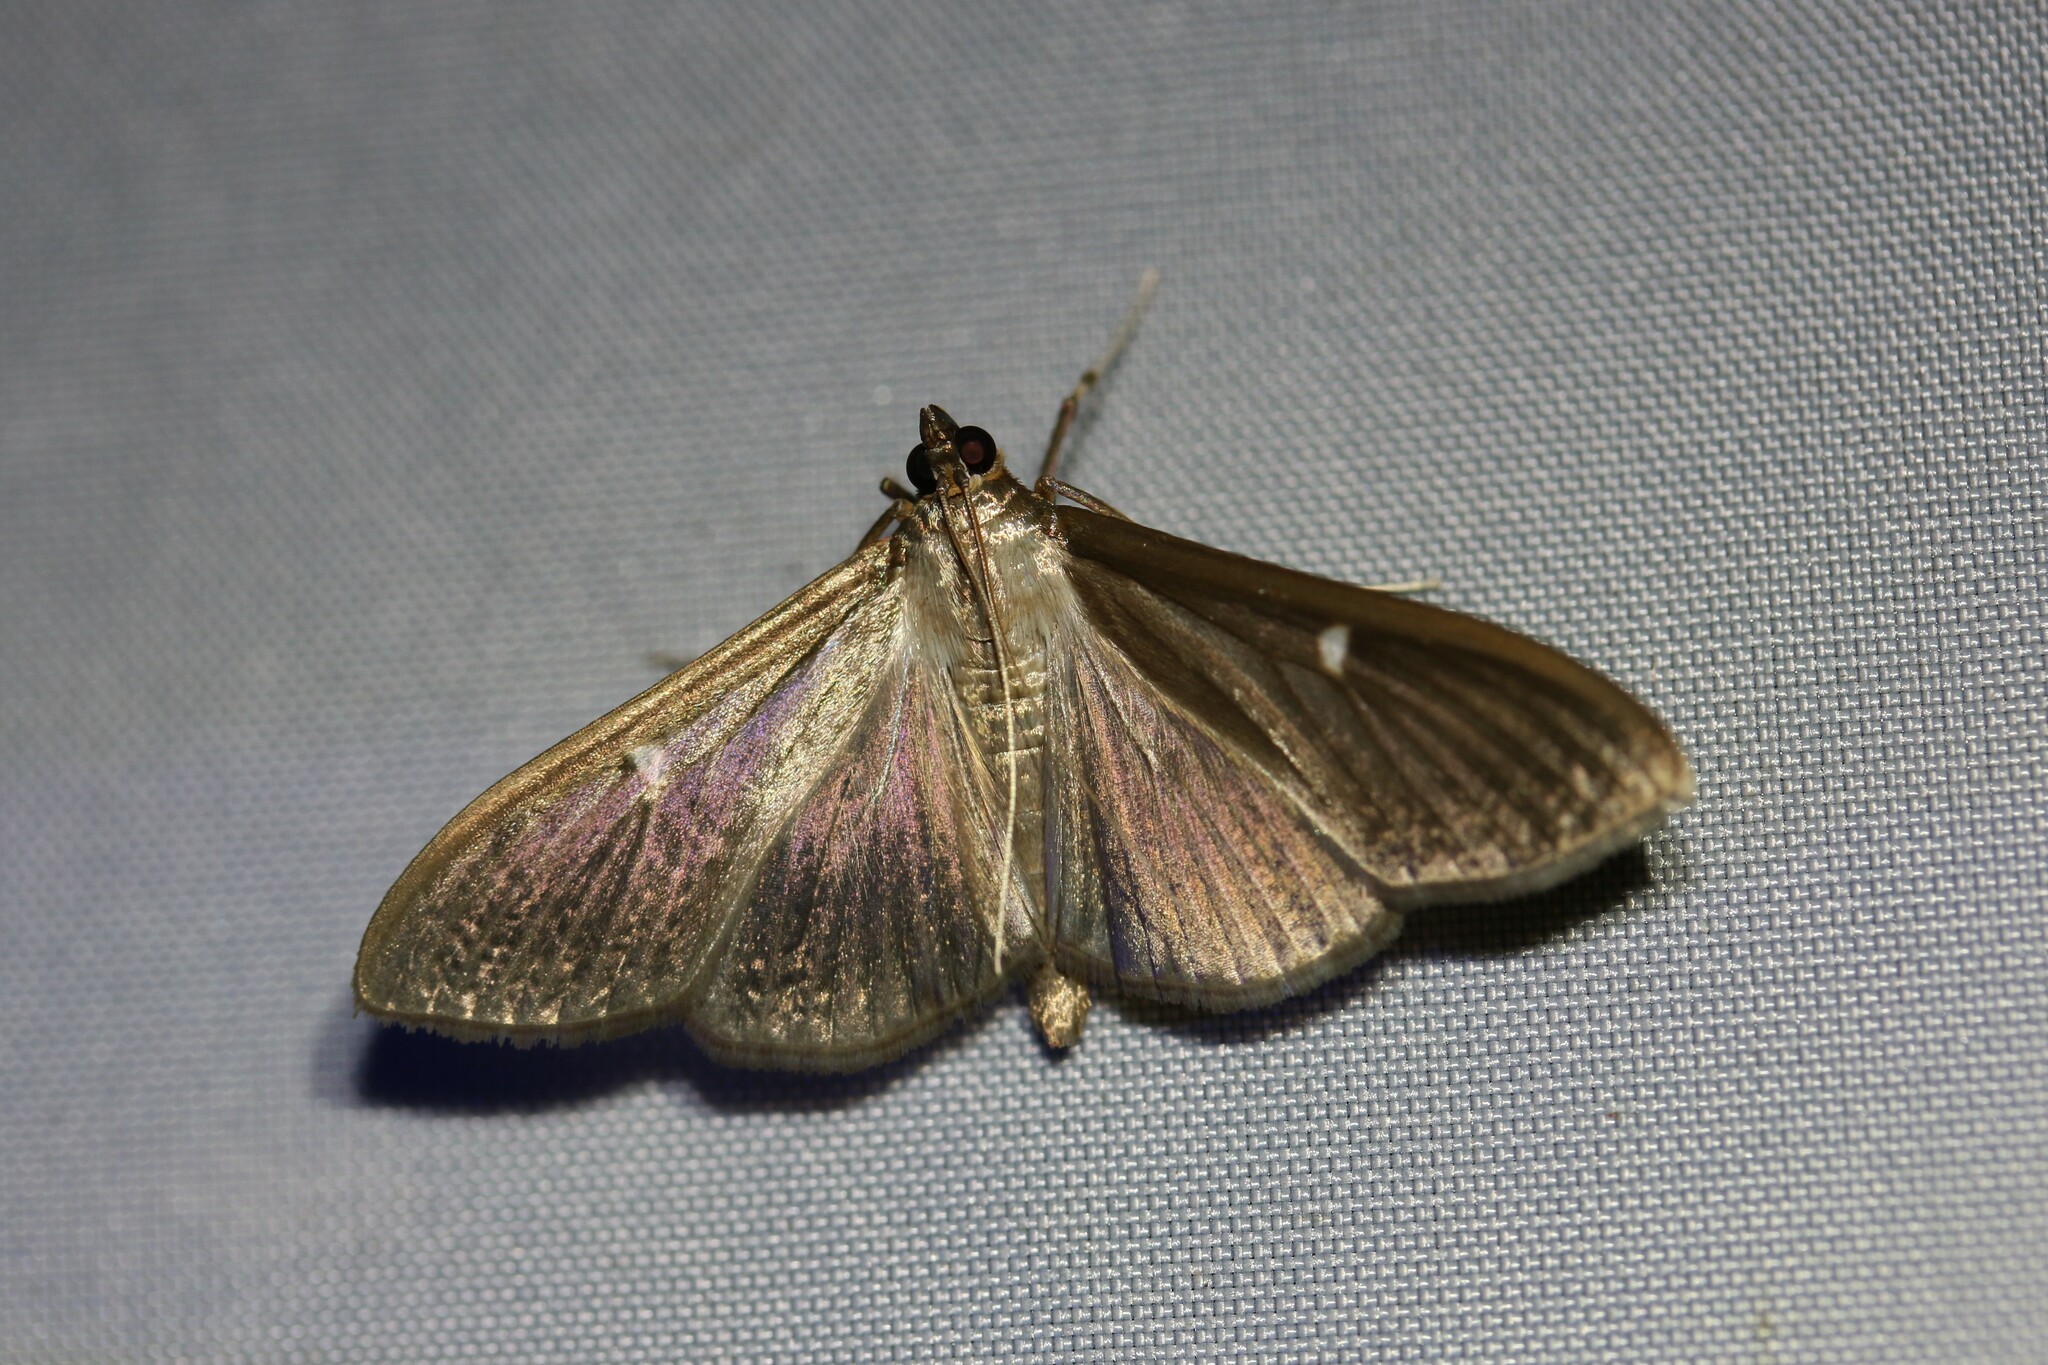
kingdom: Animalia
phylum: Arthropoda
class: Insecta
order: Lepidoptera
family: Crambidae
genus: Cydalima
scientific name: Cydalima perspectalis
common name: Box tree moth
